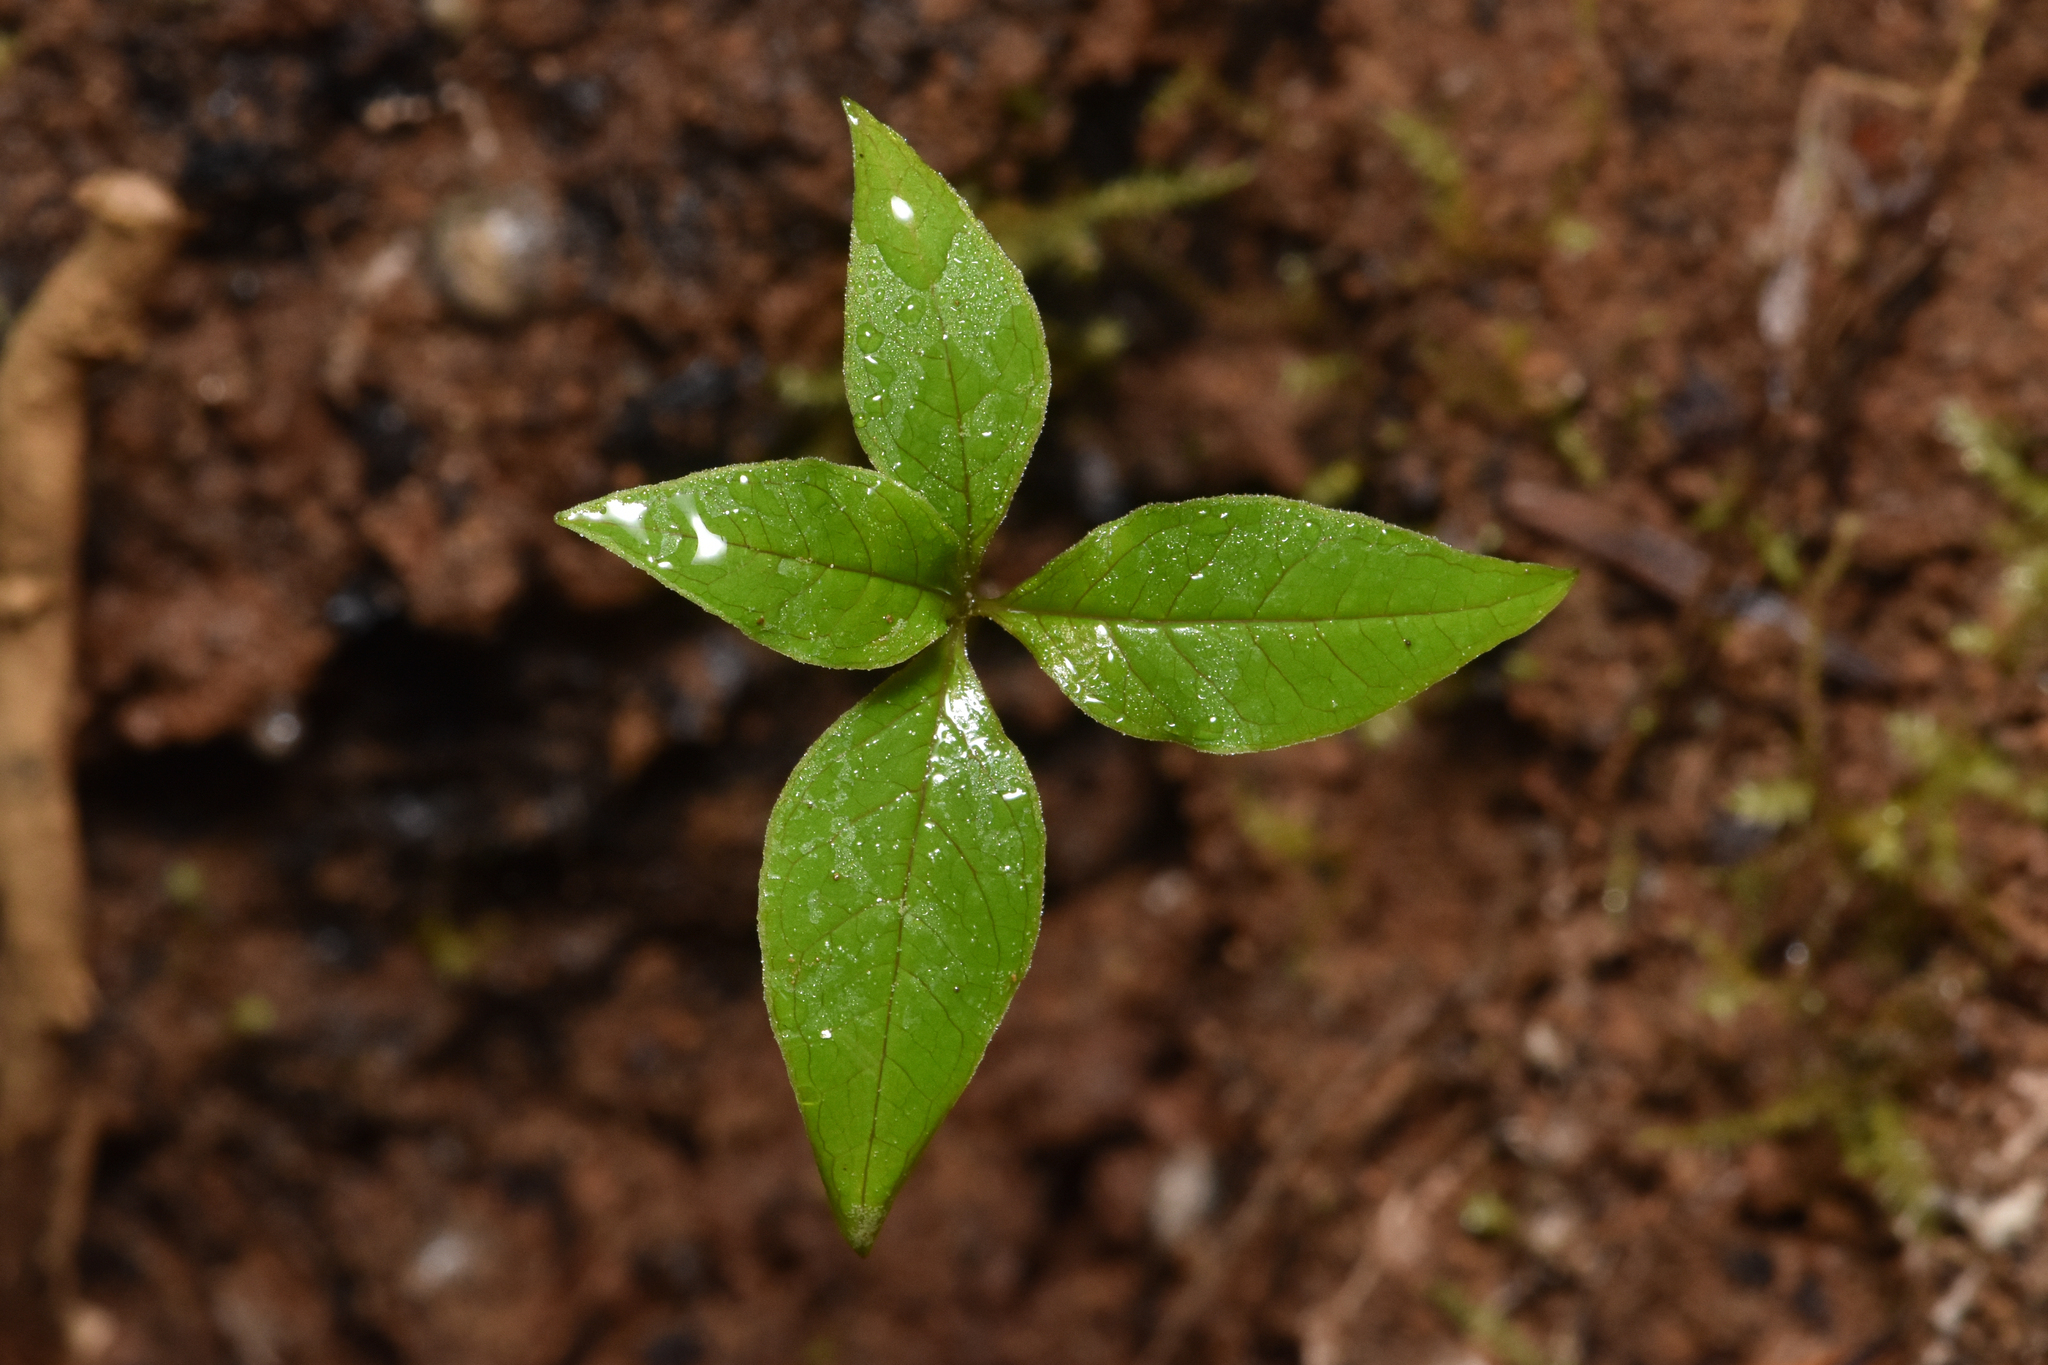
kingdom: Plantae
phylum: Tracheophyta
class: Magnoliopsida
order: Ericales
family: Primulaceae
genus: Lysimachia
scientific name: Lysimachia latifolia
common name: Pacific starflower
